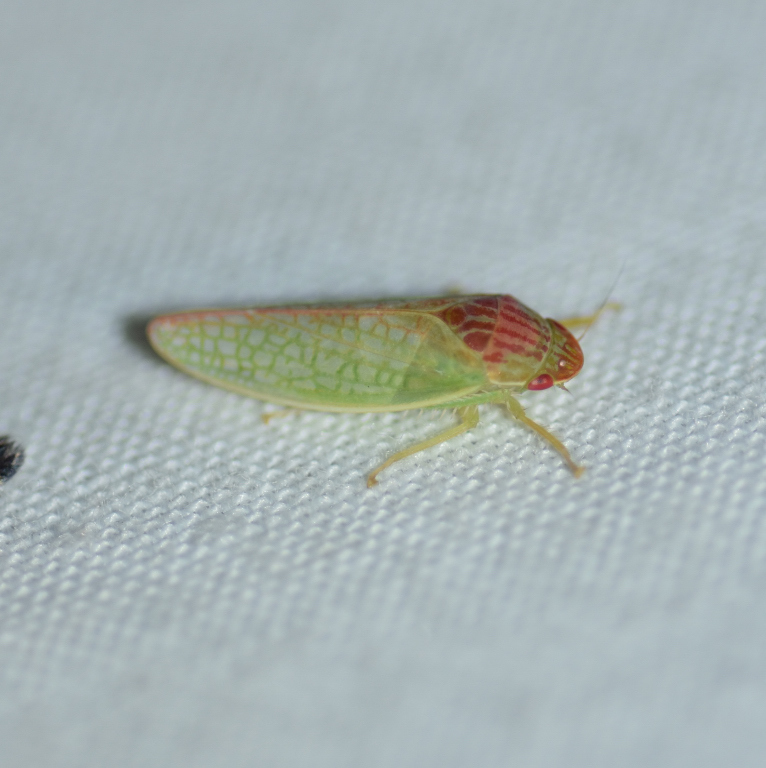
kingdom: Animalia
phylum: Arthropoda
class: Insecta
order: Hemiptera
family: Cicadellidae
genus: Gyponana
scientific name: Gyponana octolineata
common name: Eight-lined leafhopper
